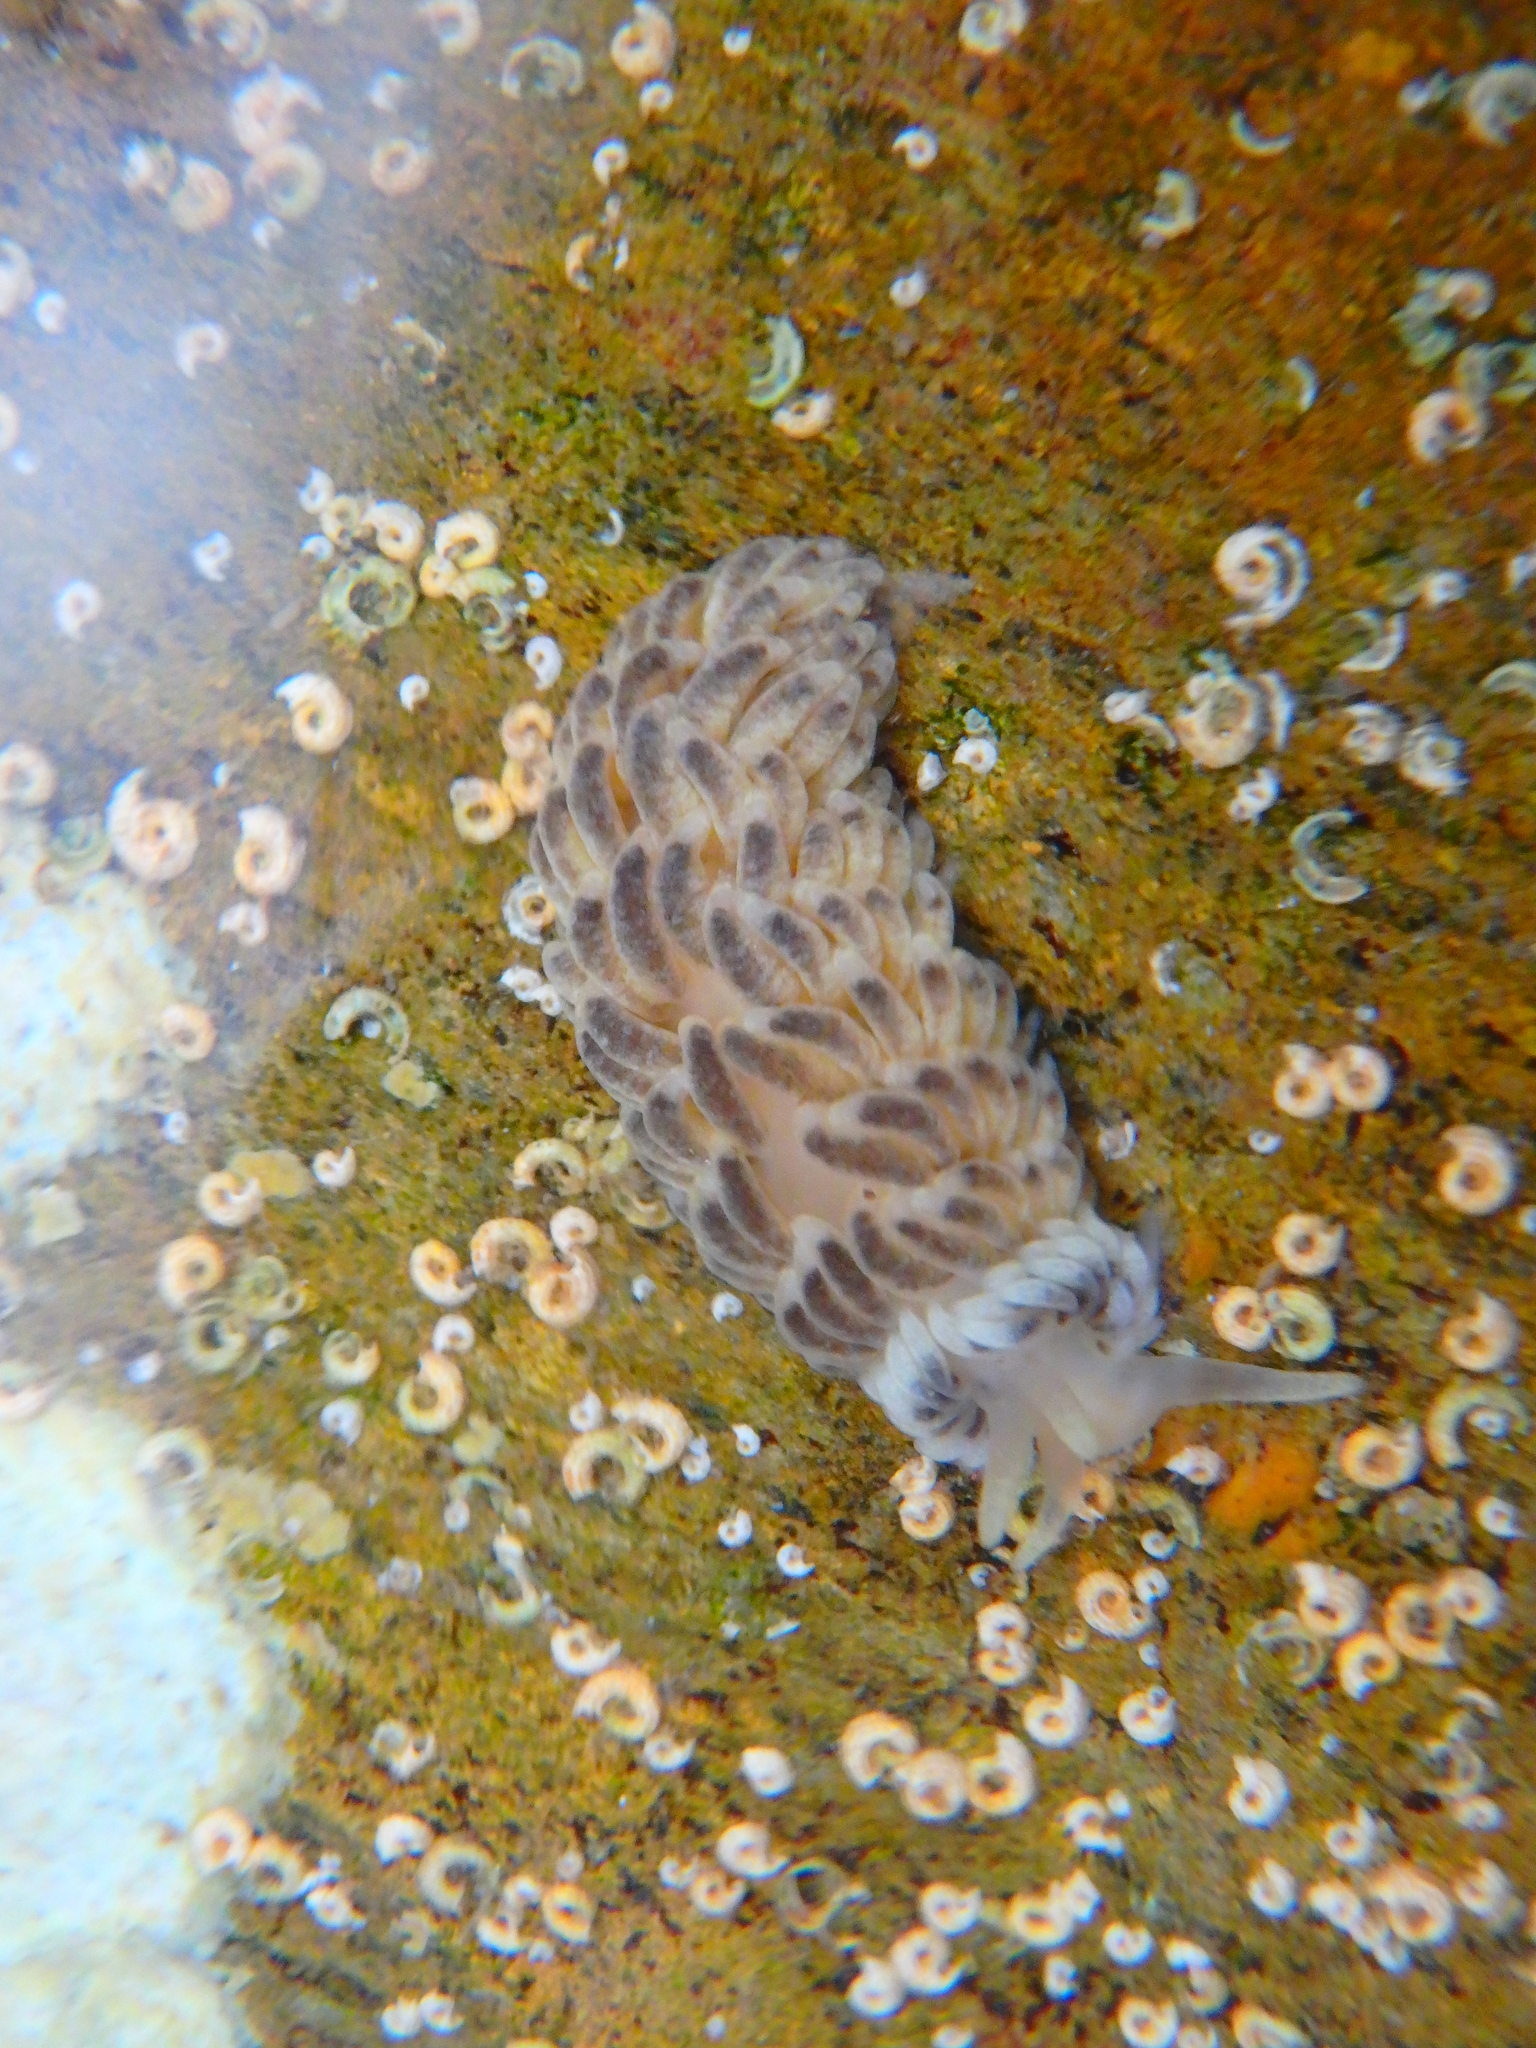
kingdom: Animalia
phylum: Mollusca
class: Gastropoda
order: Nudibranchia
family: Aeolidiidae
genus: Aeolidiella
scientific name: Aeolidiella alderi
